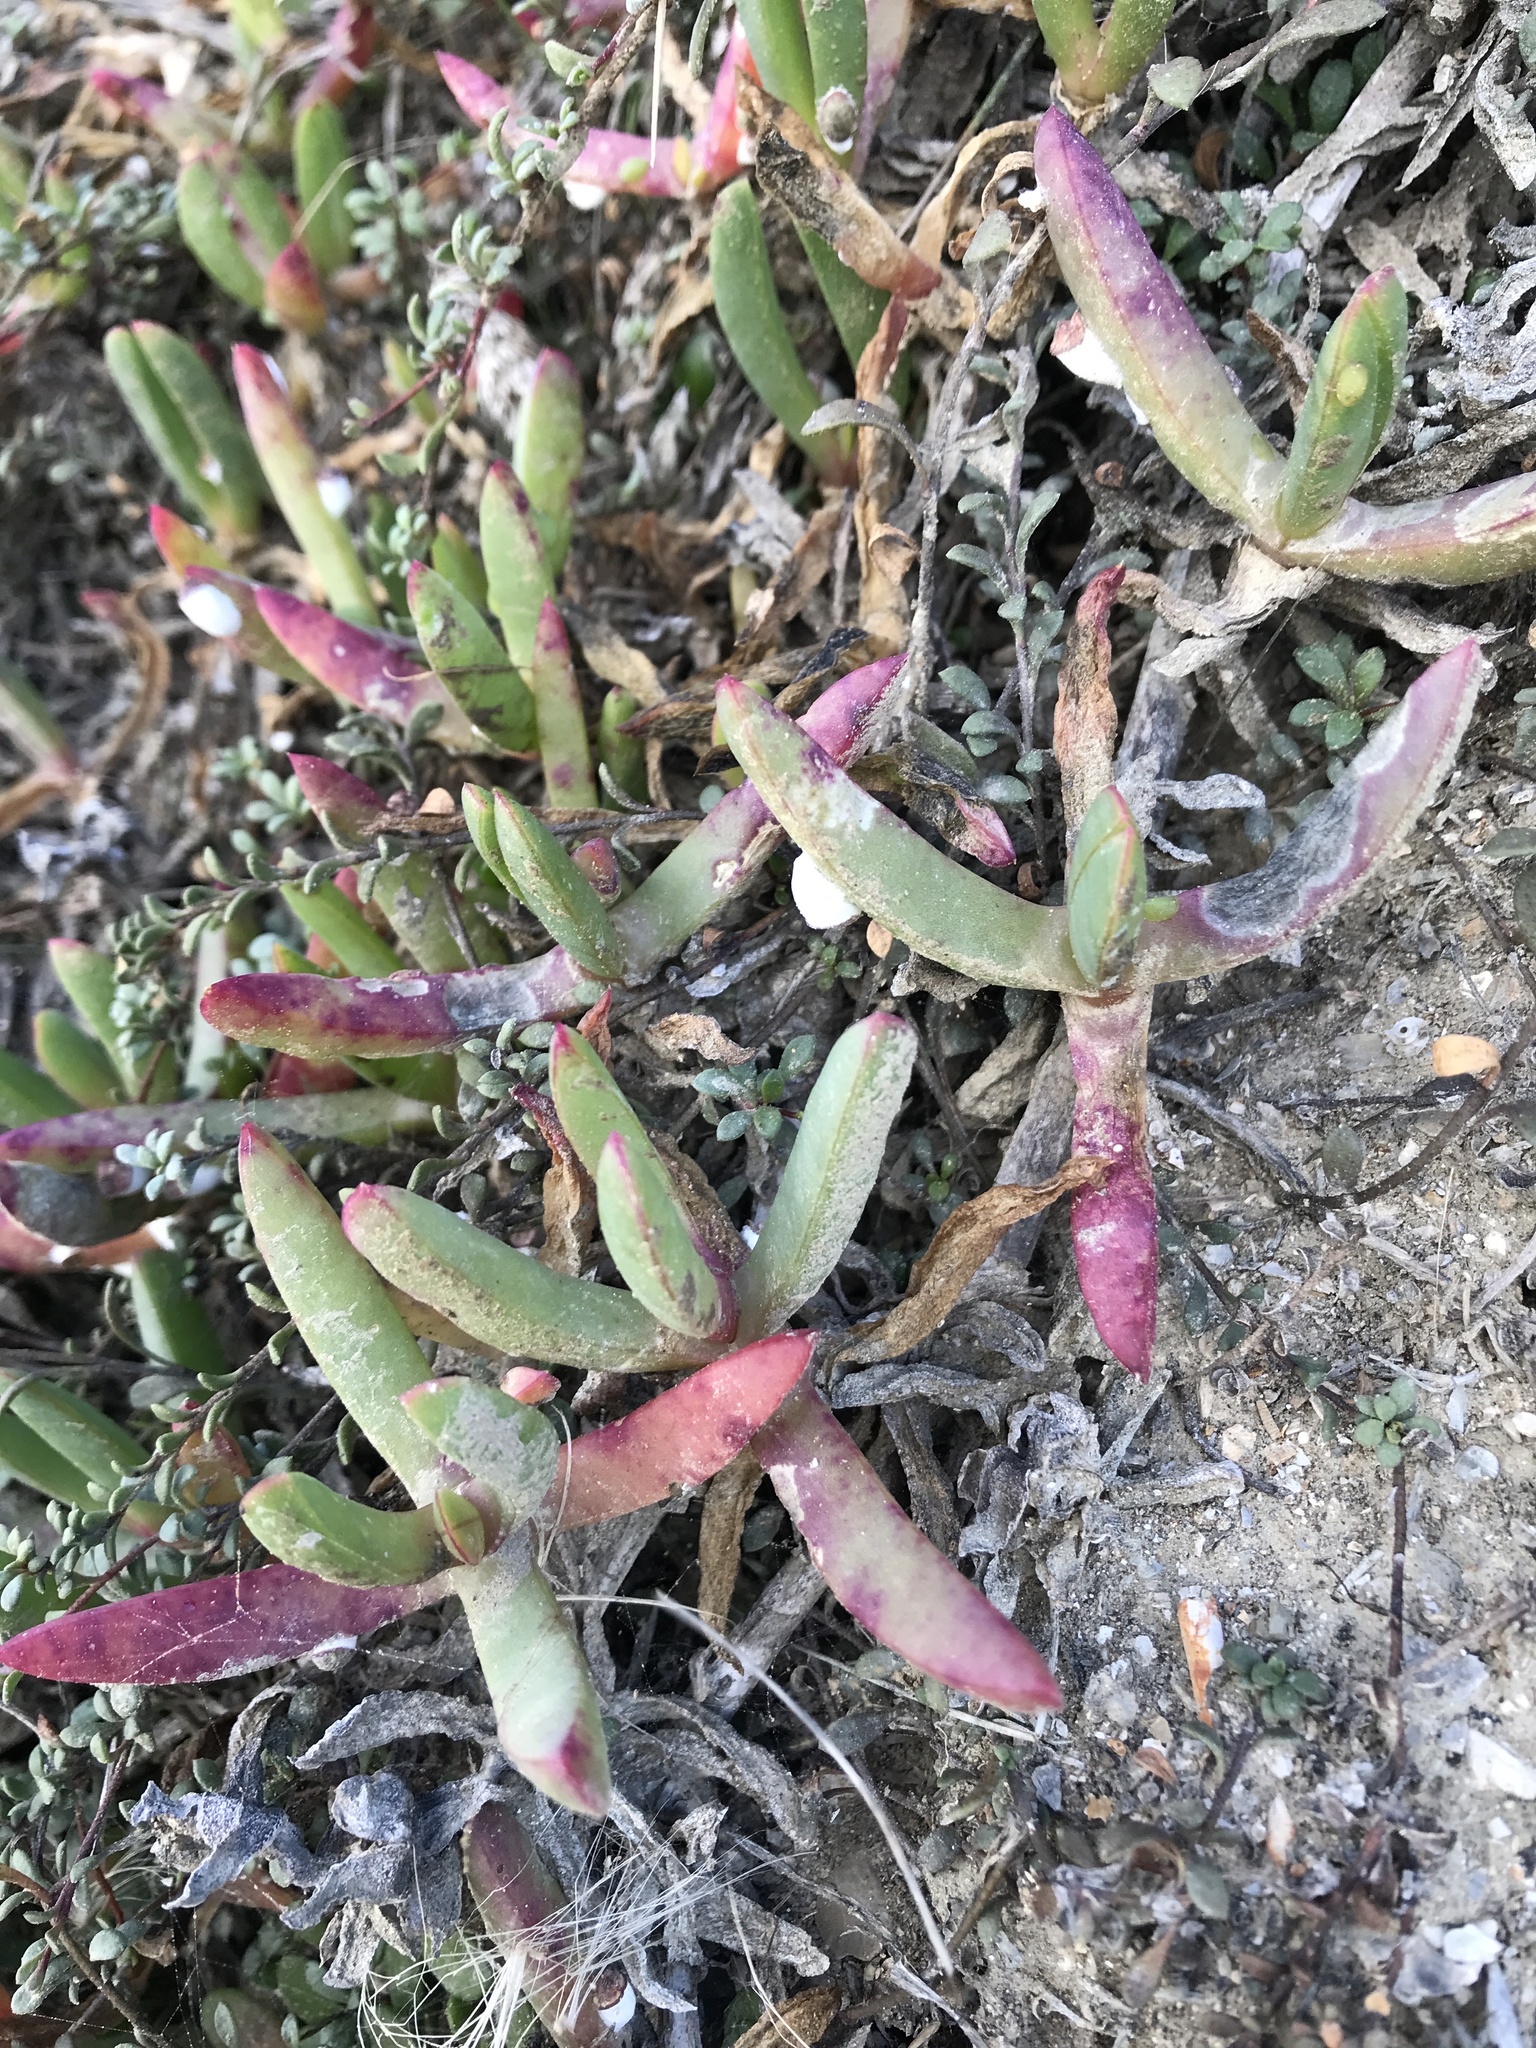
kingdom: Plantae
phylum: Tracheophyta
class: Magnoliopsida
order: Caryophyllales
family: Aizoaceae
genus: Carpobrotus
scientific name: Carpobrotus chilensis
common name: Sea fig
